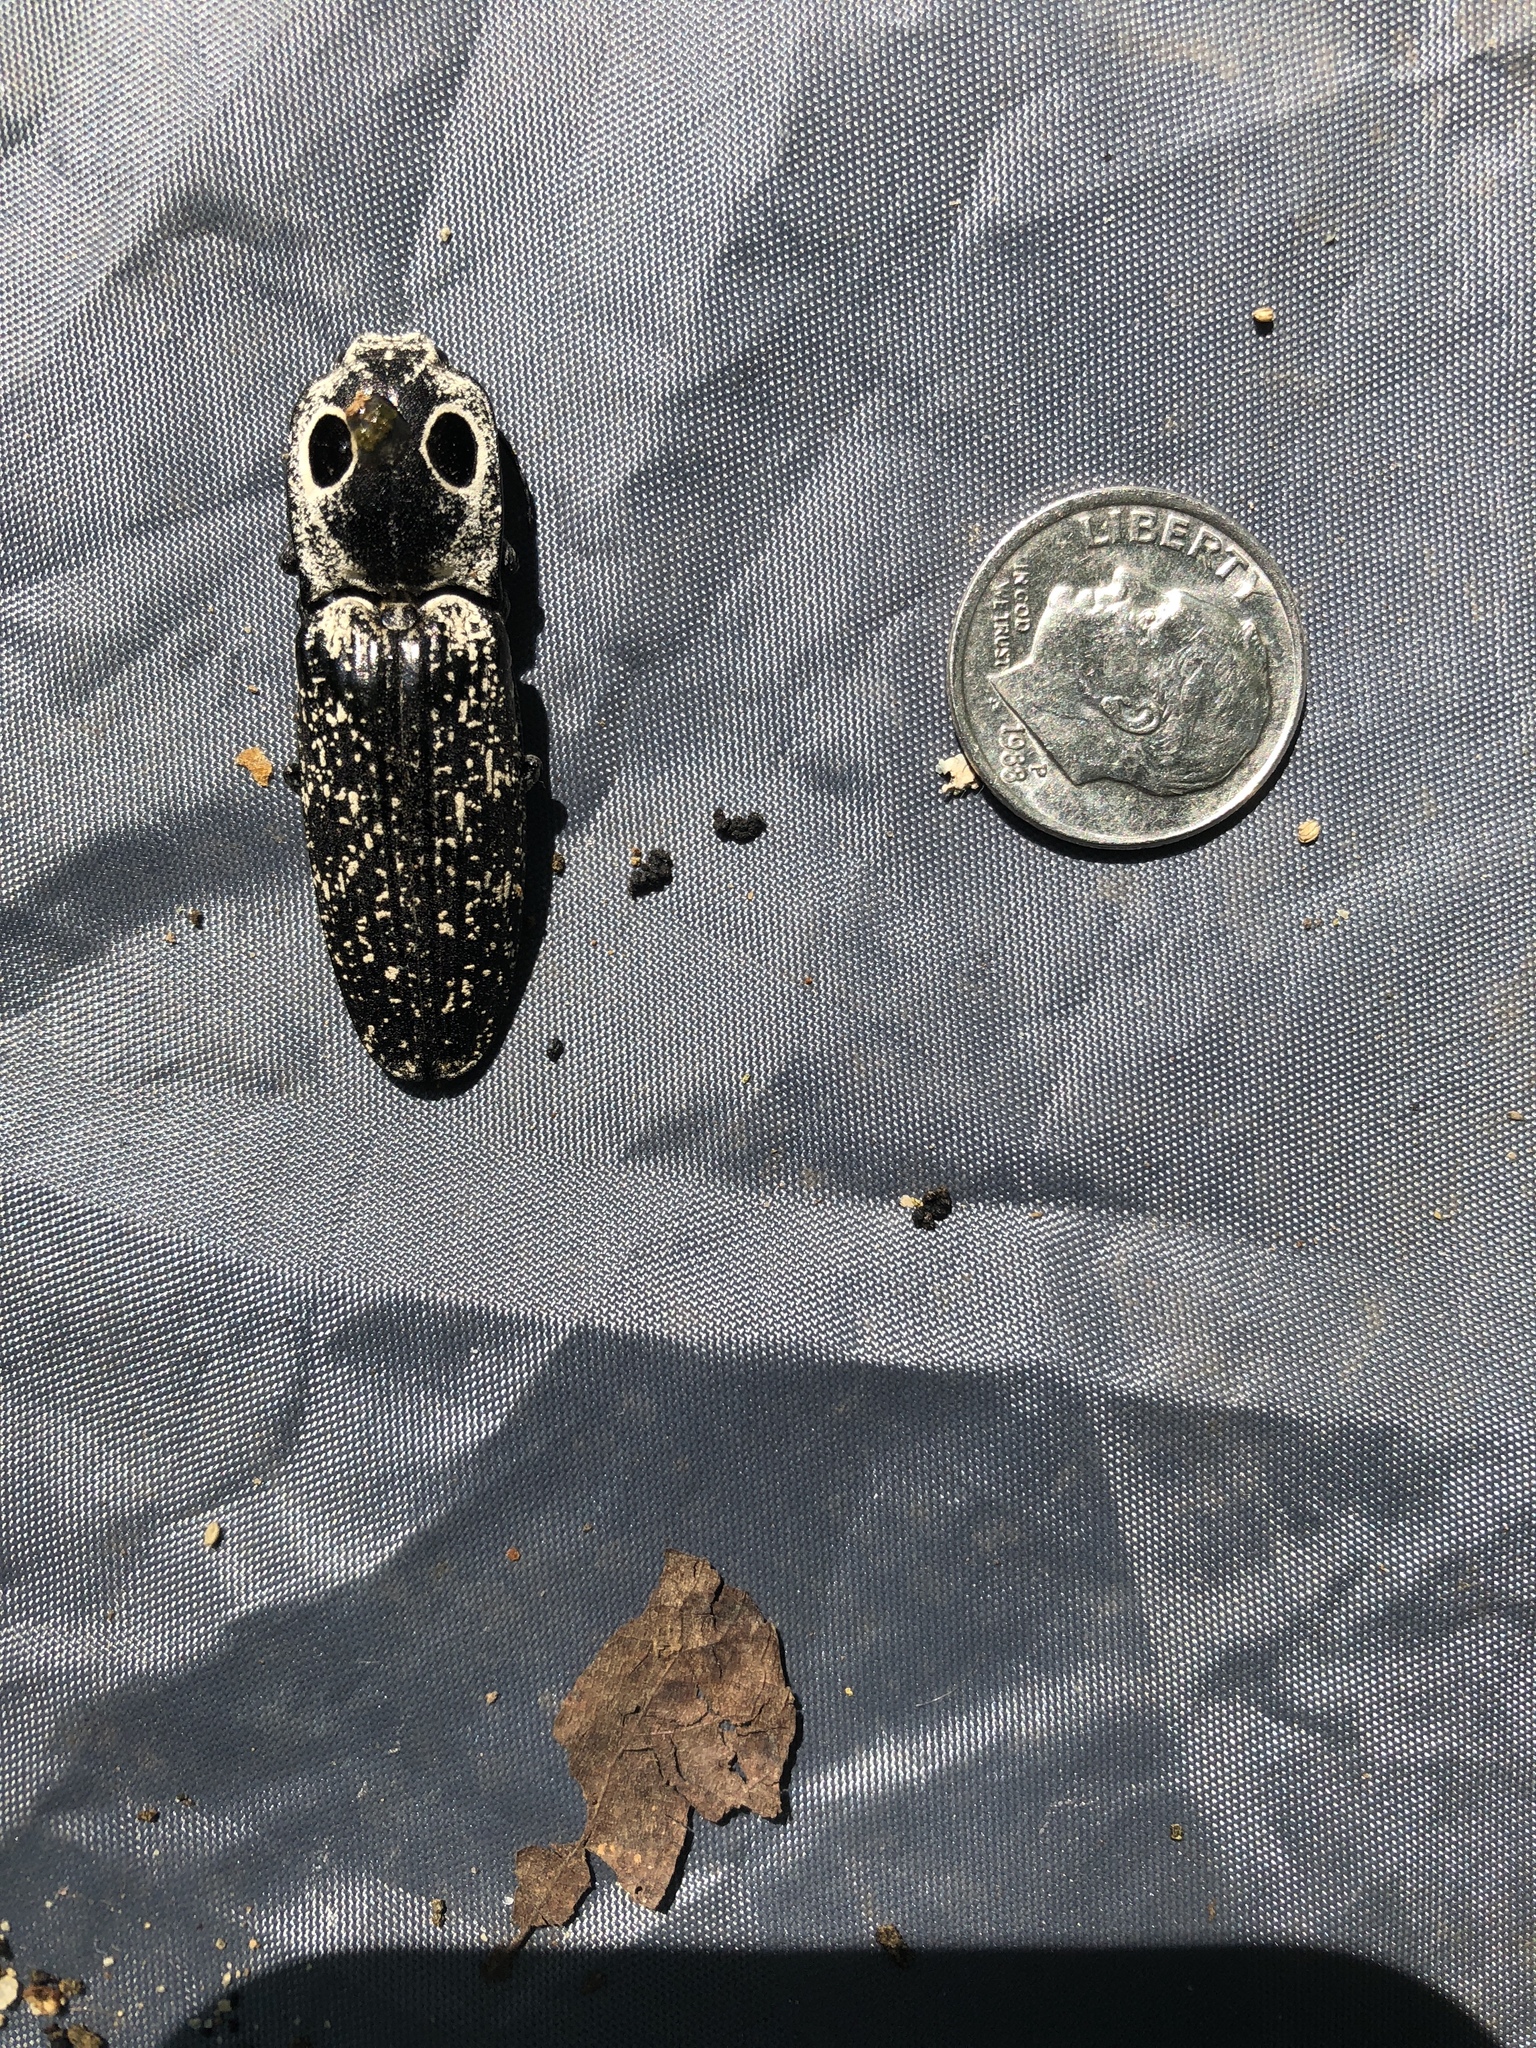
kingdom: Animalia
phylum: Arthropoda
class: Insecta
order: Coleoptera
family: Elateridae
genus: Alaus
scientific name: Alaus oculatus
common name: Eastern eyed click beetle
